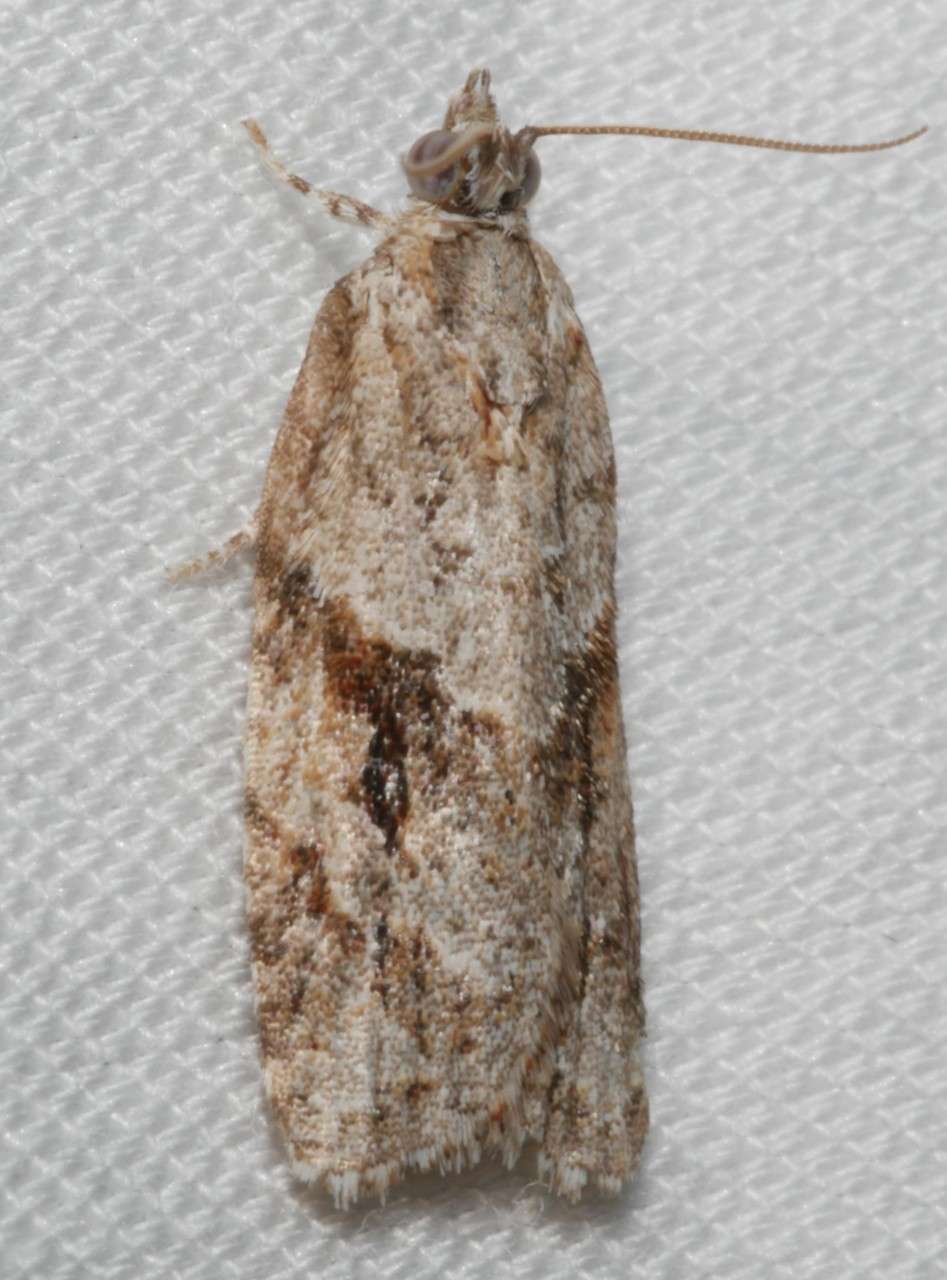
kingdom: Animalia
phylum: Arthropoda
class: Insecta
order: Lepidoptera
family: Tortricidae
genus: Acropolitis
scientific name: Acropolitis rudisana
